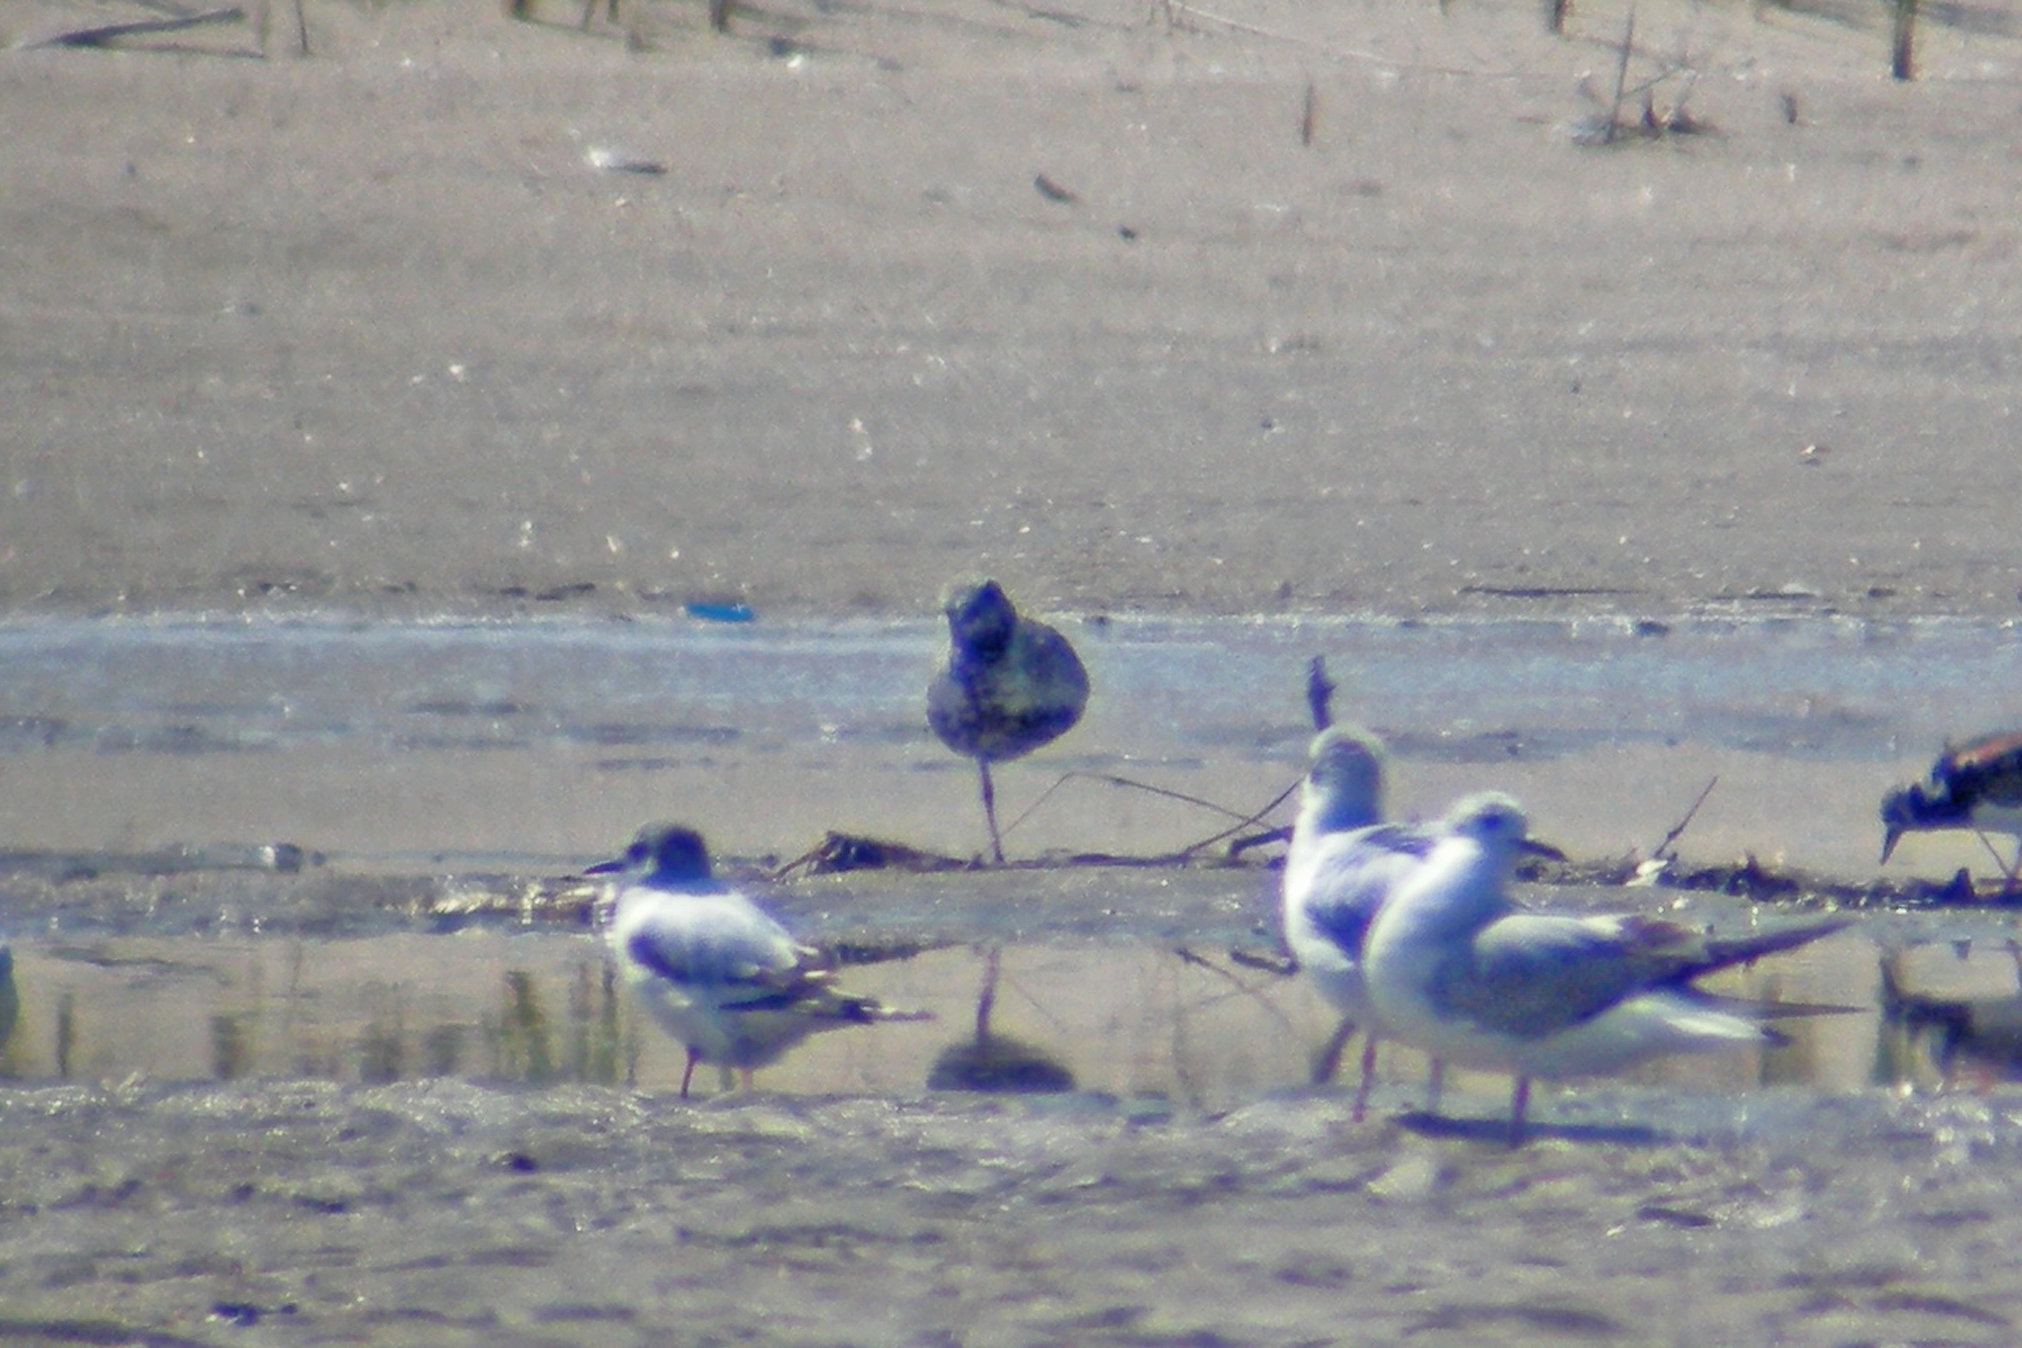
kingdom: Animalia
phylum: Chordata
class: Aves
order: Charadriiformes
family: Charadriidae
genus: Pluvialis
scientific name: Pluvialis squatarola
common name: Grey plover
